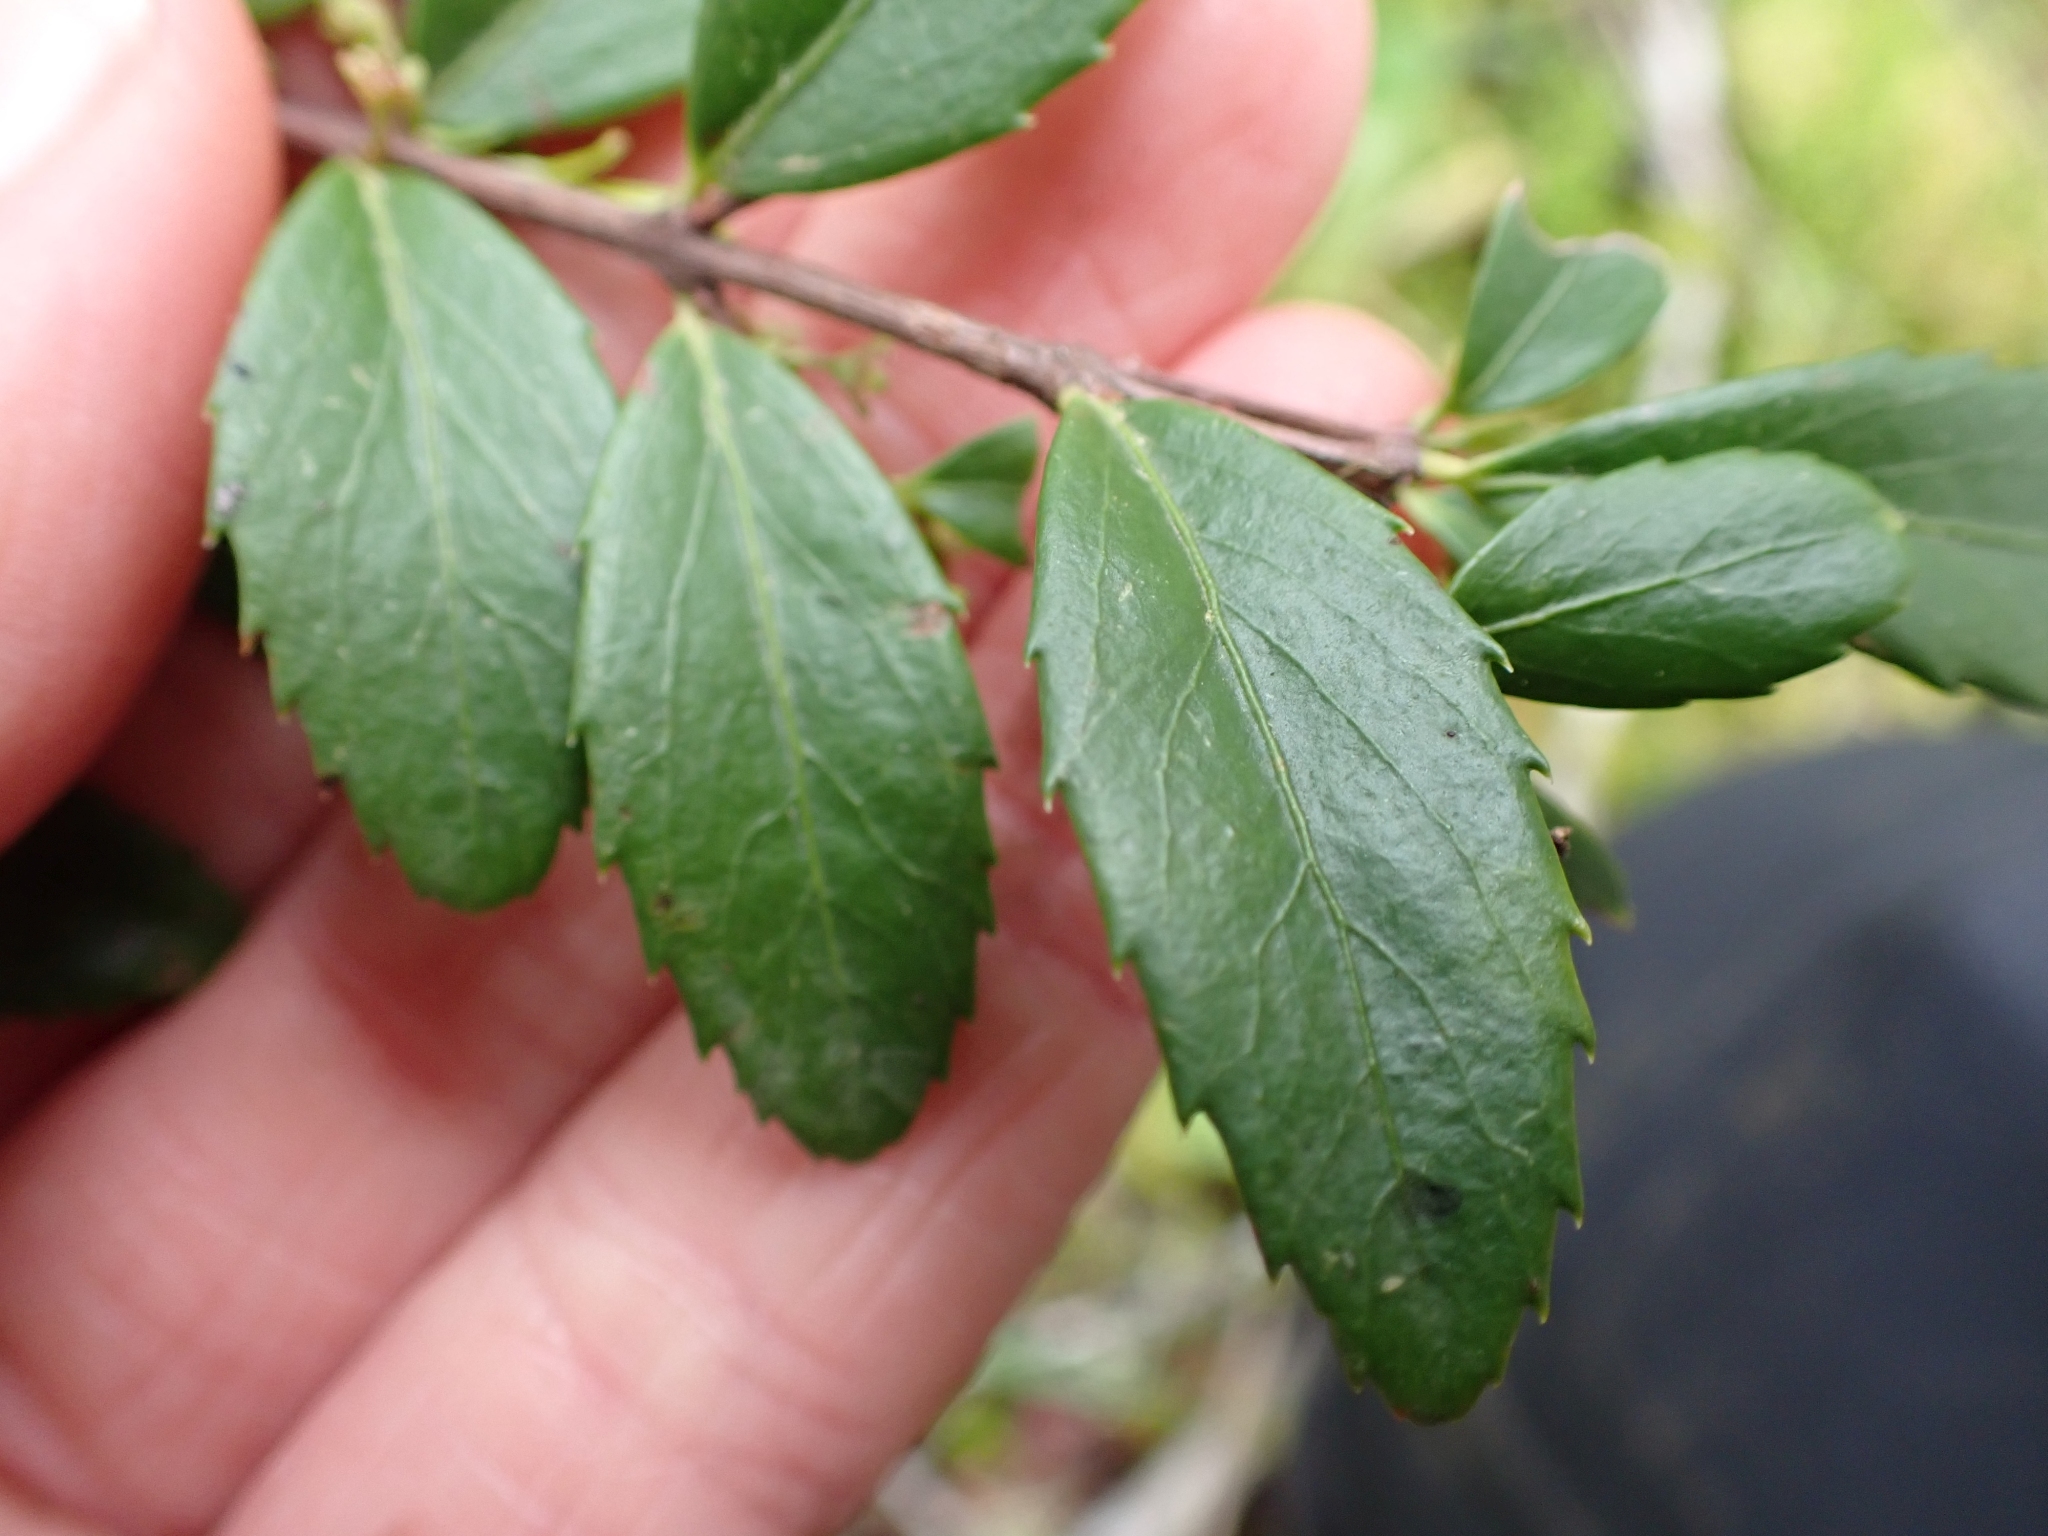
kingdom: Plantae
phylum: Tracheophyta
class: Magnoliopsida
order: Celastrales
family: Celastraceae
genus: Paxistima
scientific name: Paxistima myrsinites
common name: Mountain-lover
